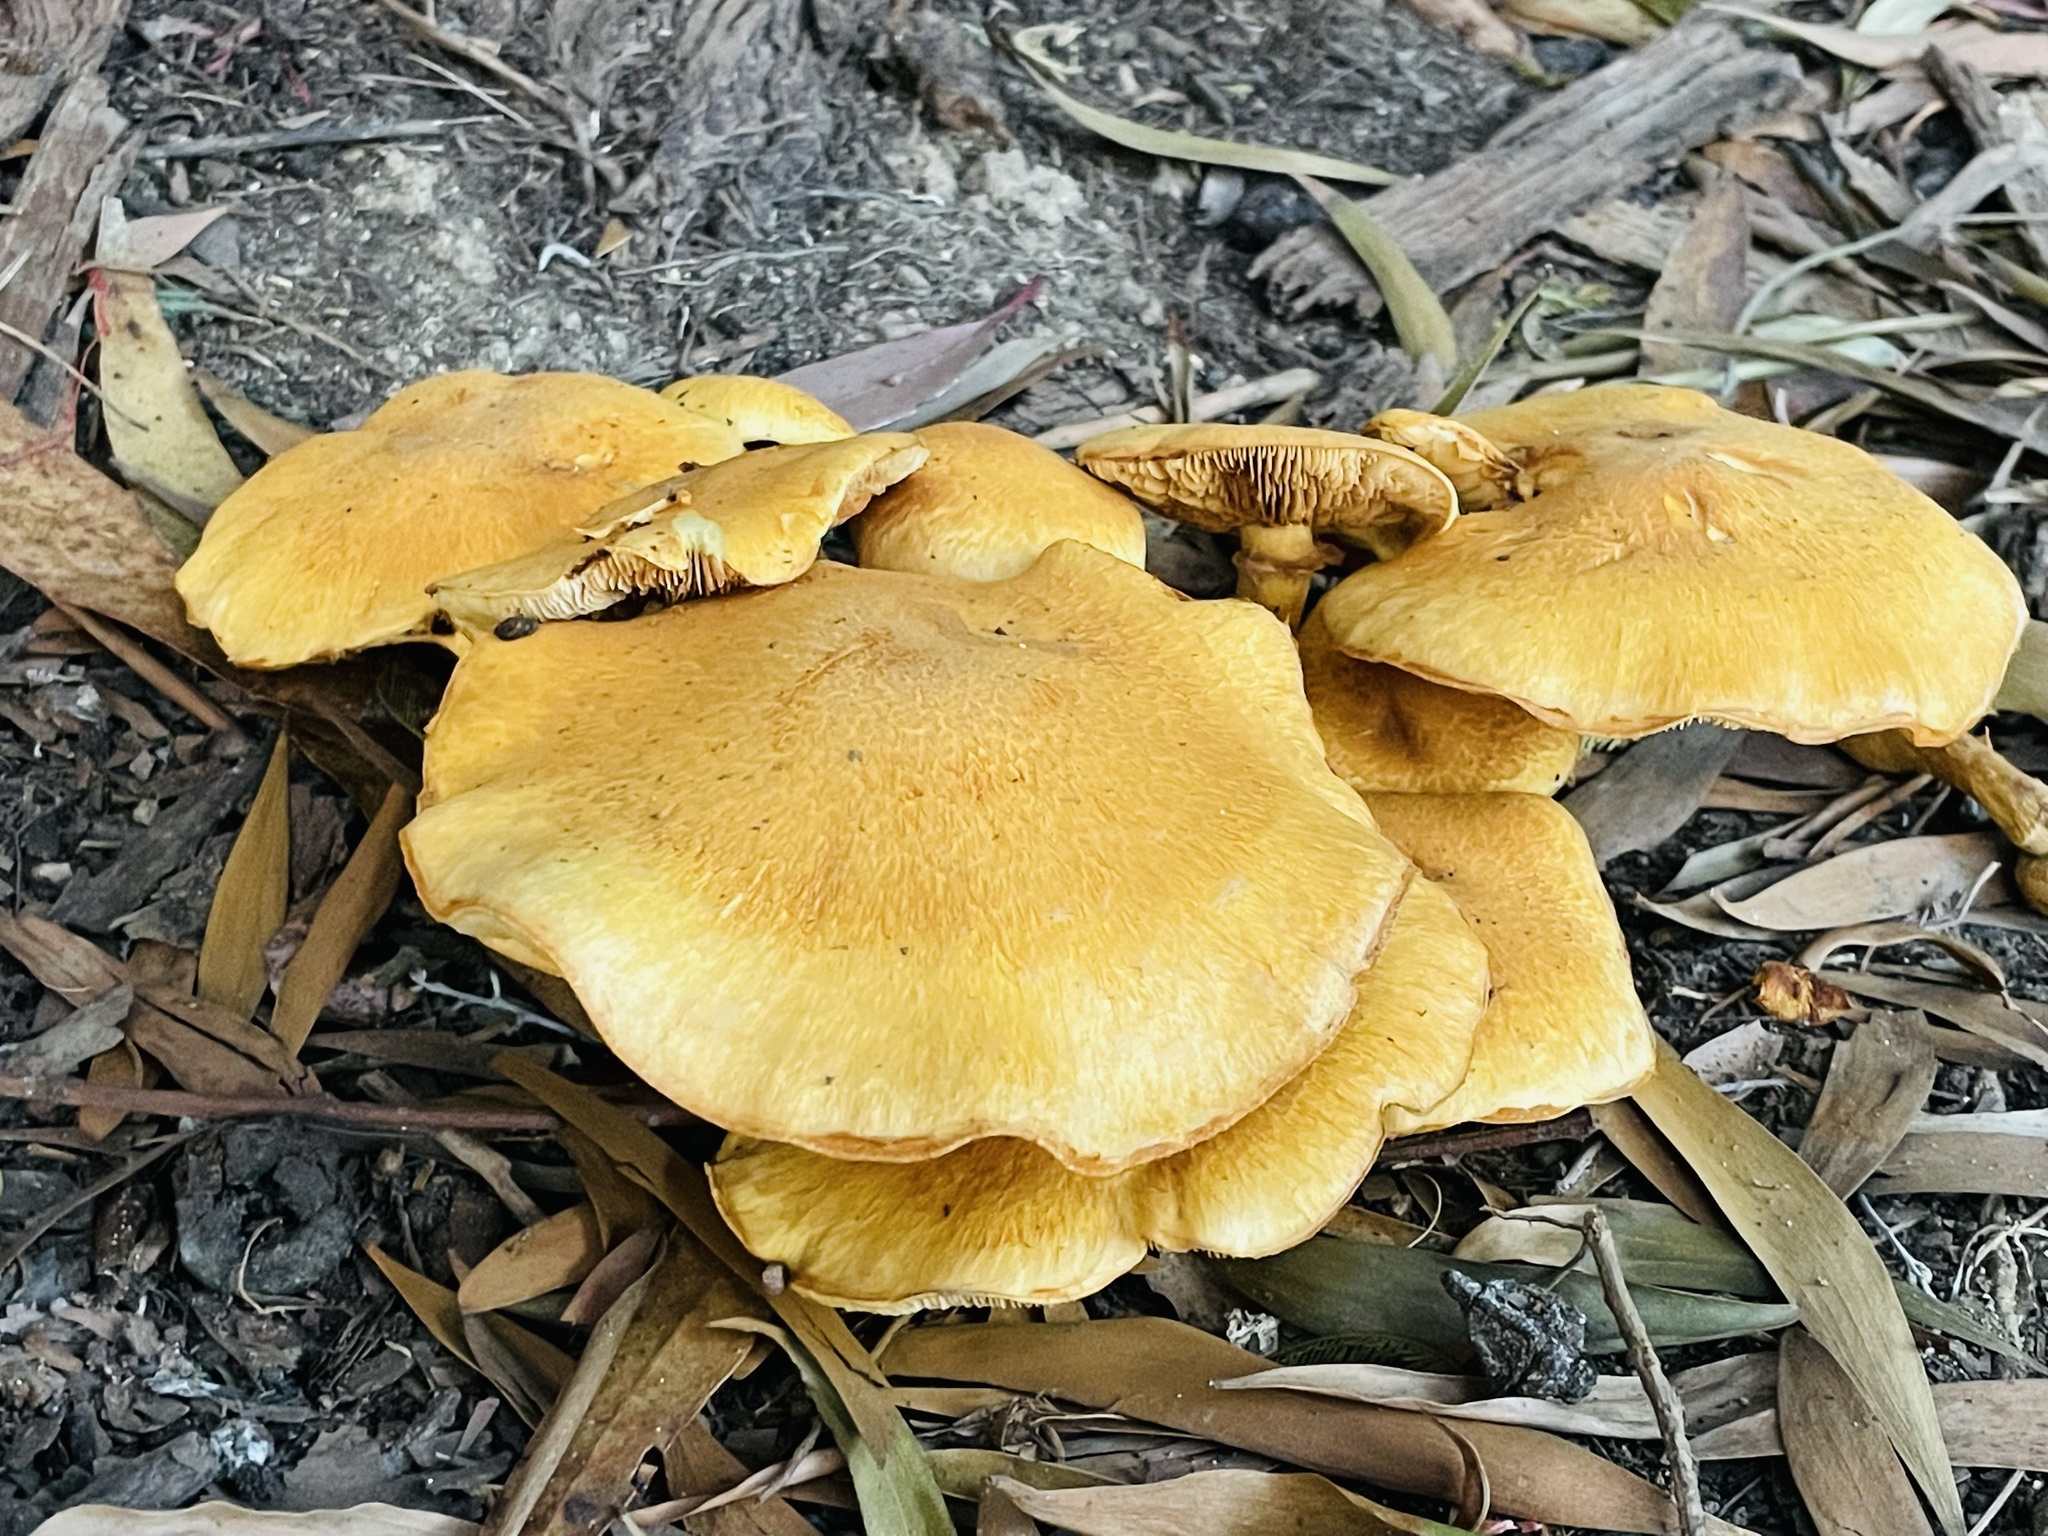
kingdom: Fungi
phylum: Basidiomycota
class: Agaricomycetes
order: Agaricales
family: Hymenogastraceae
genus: Gymnopilus
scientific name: Gymnopilus junonius
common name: Spectacular rustgill
